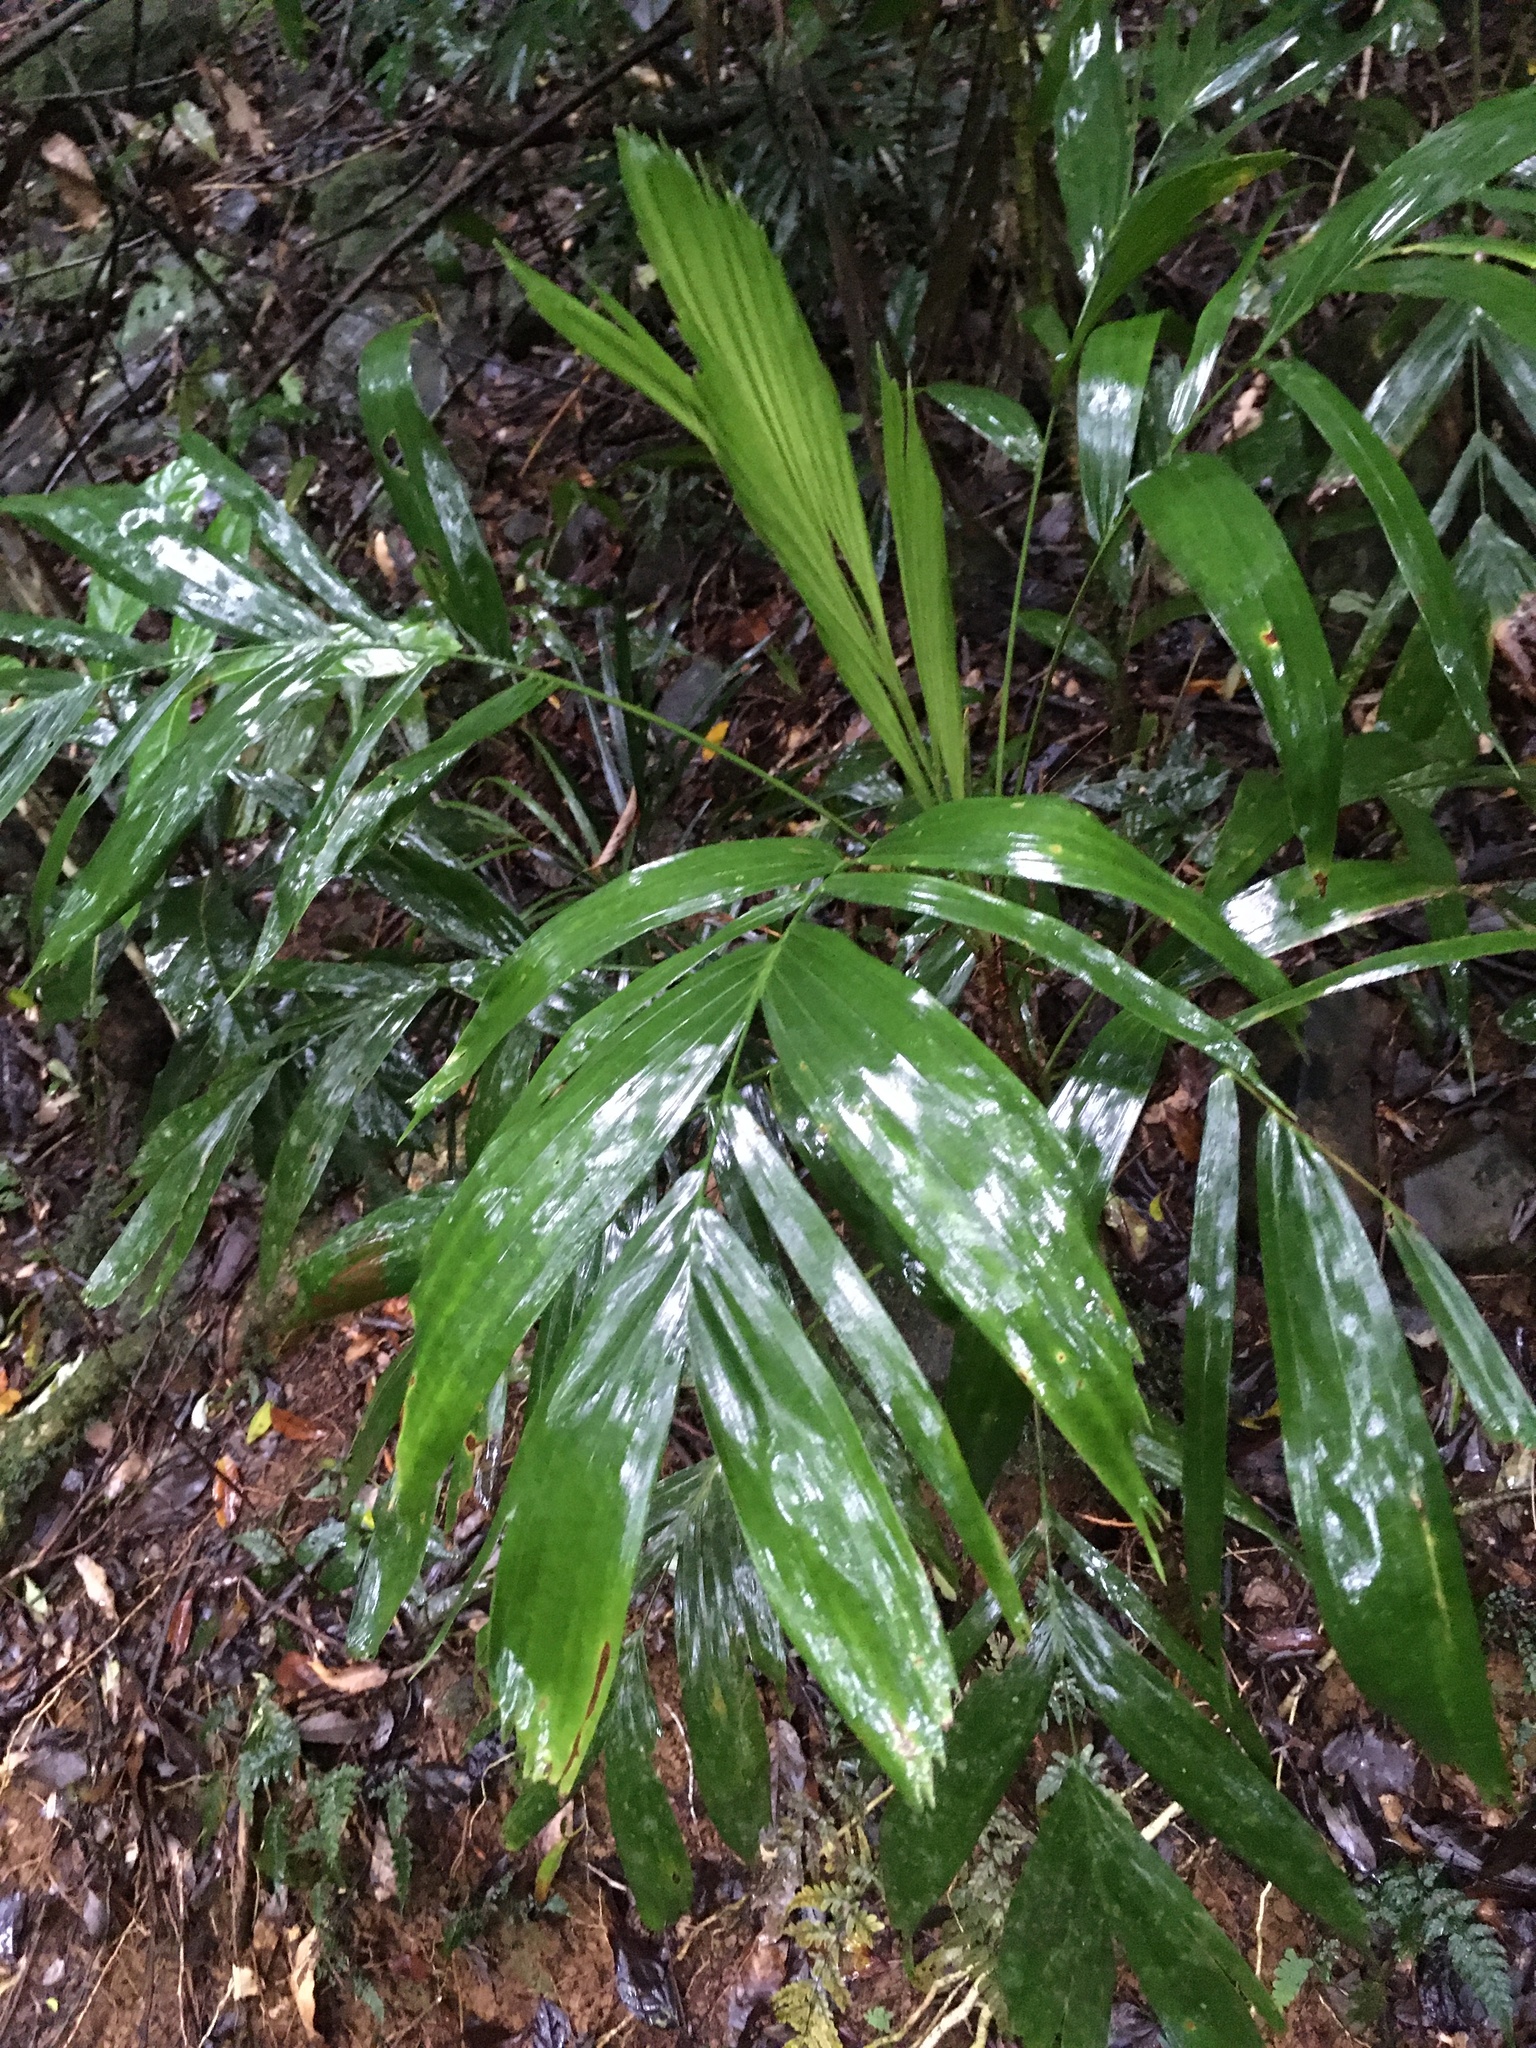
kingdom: Plantae
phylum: Tracheophyta
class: Liliopsida
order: Arecales
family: Arecaceae
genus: Linospadix
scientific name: Linospadix monostachyus
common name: Walking-stick palm
